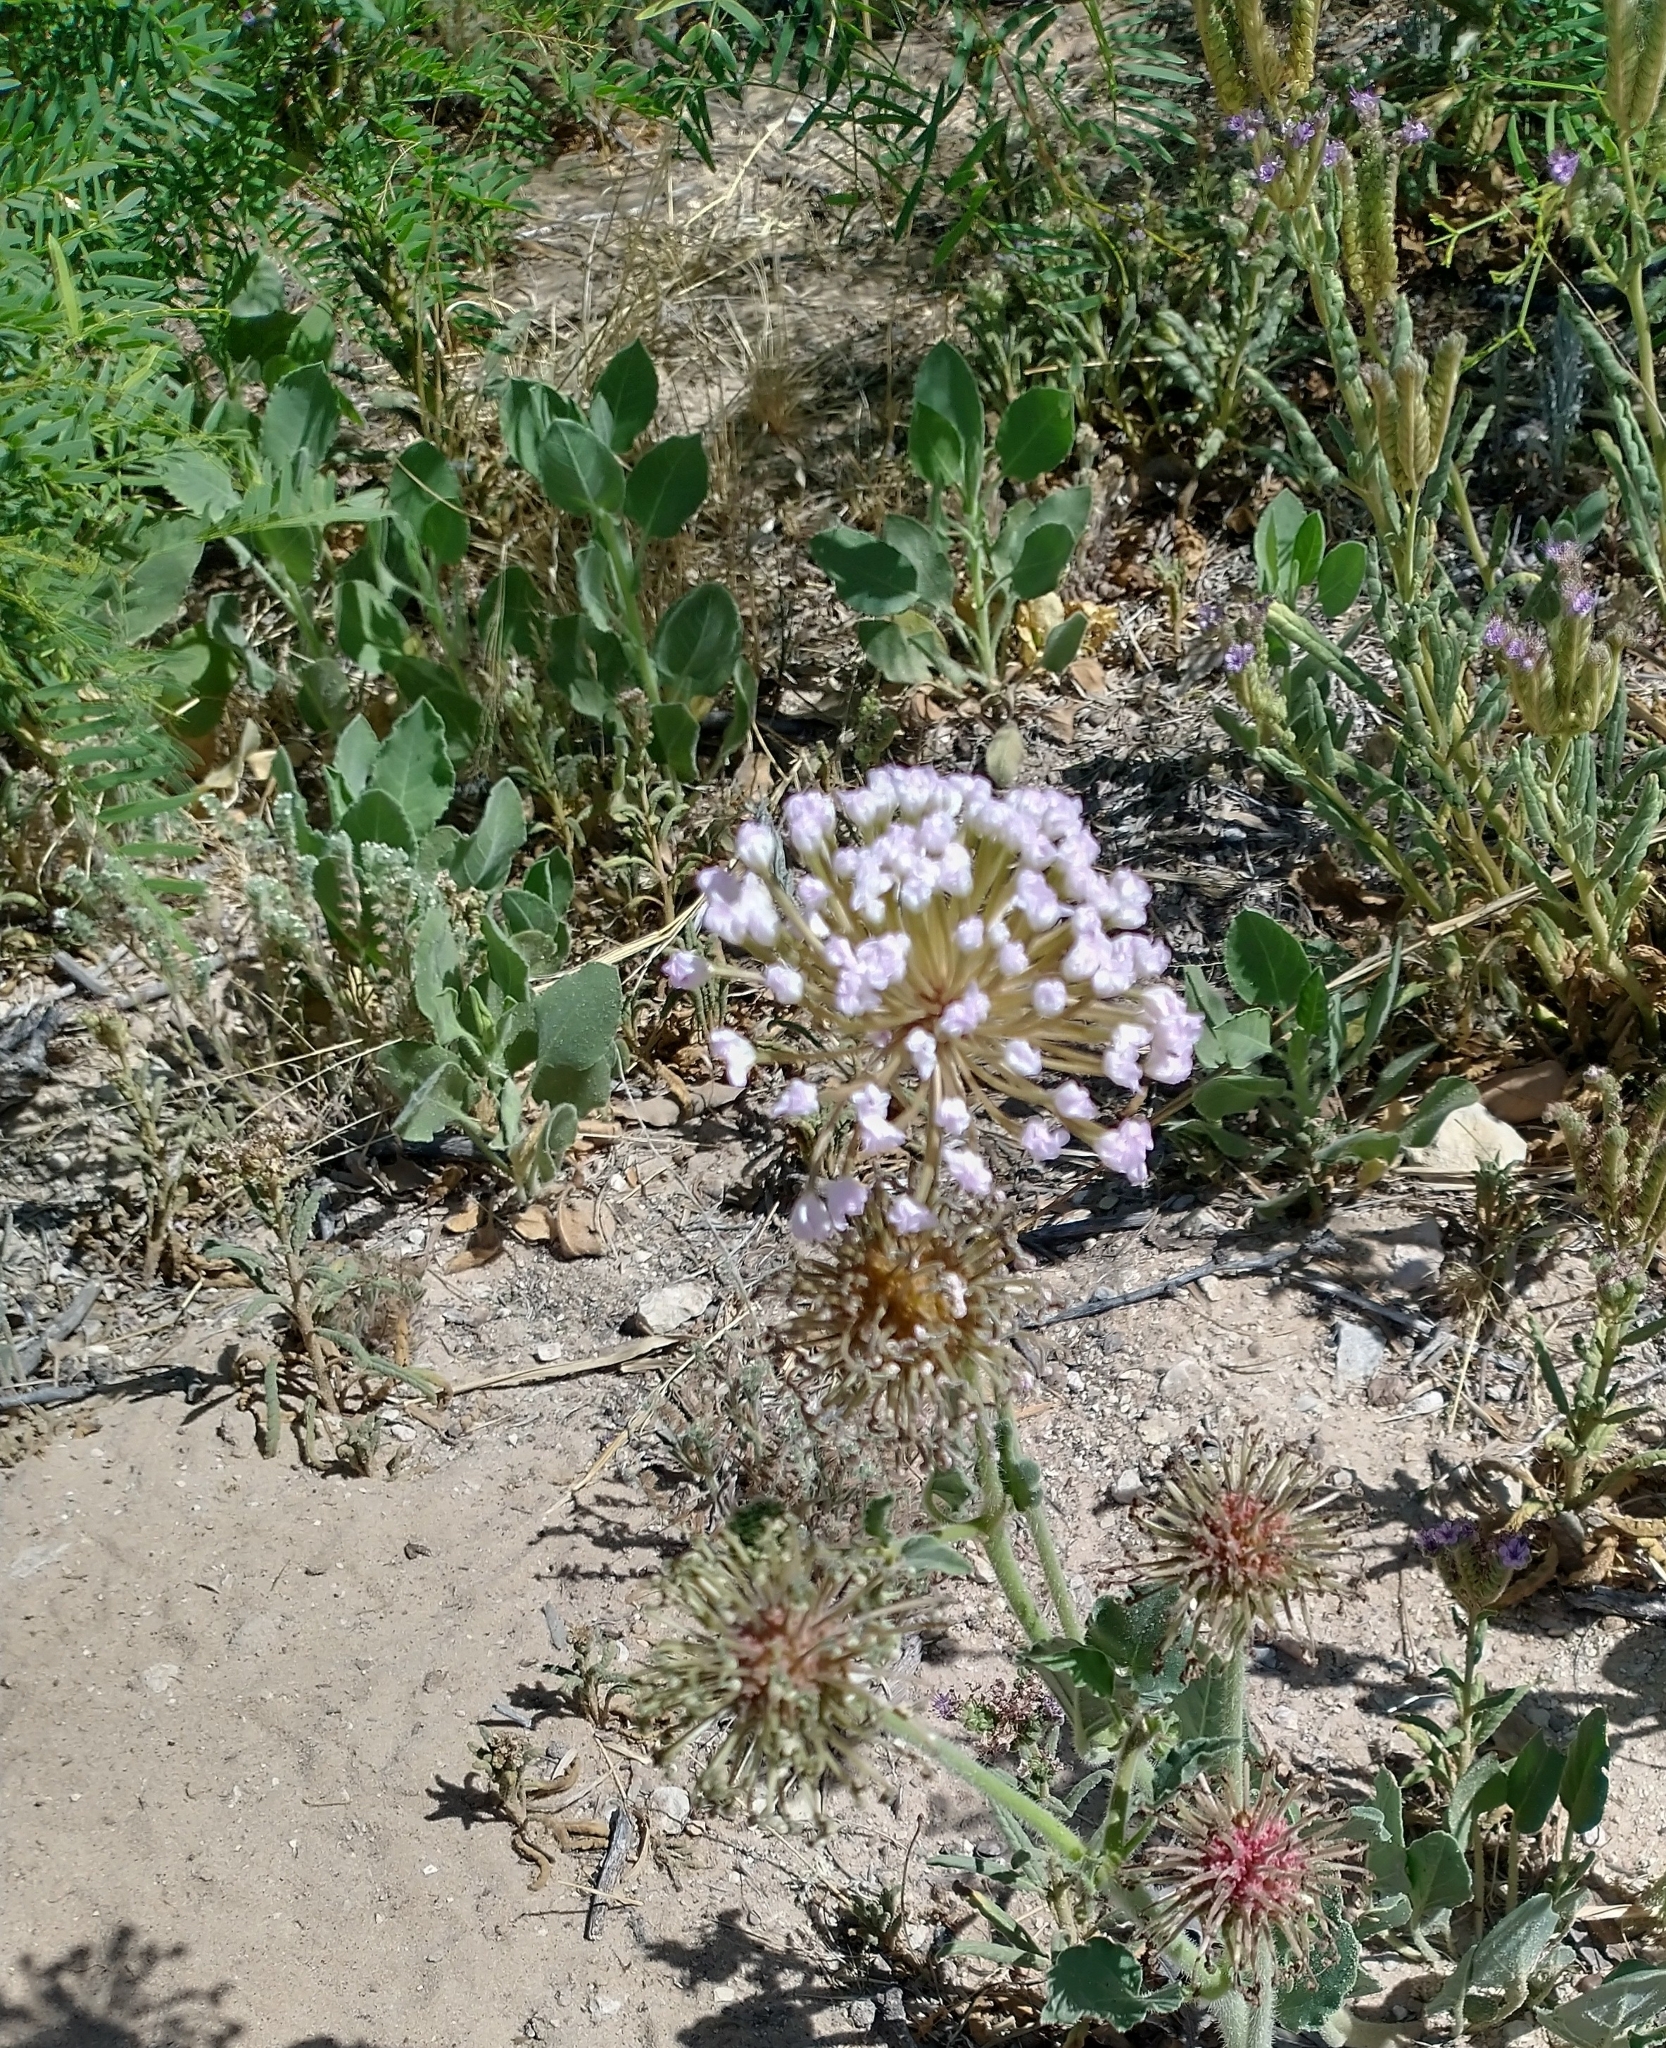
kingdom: Plantae
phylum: Tracheophyta
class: Magnoliopsida
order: Caryophyllales
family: Nyctaginaceae
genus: Abronia
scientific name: Abronia fragrans
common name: Fragrant sand-verbena
